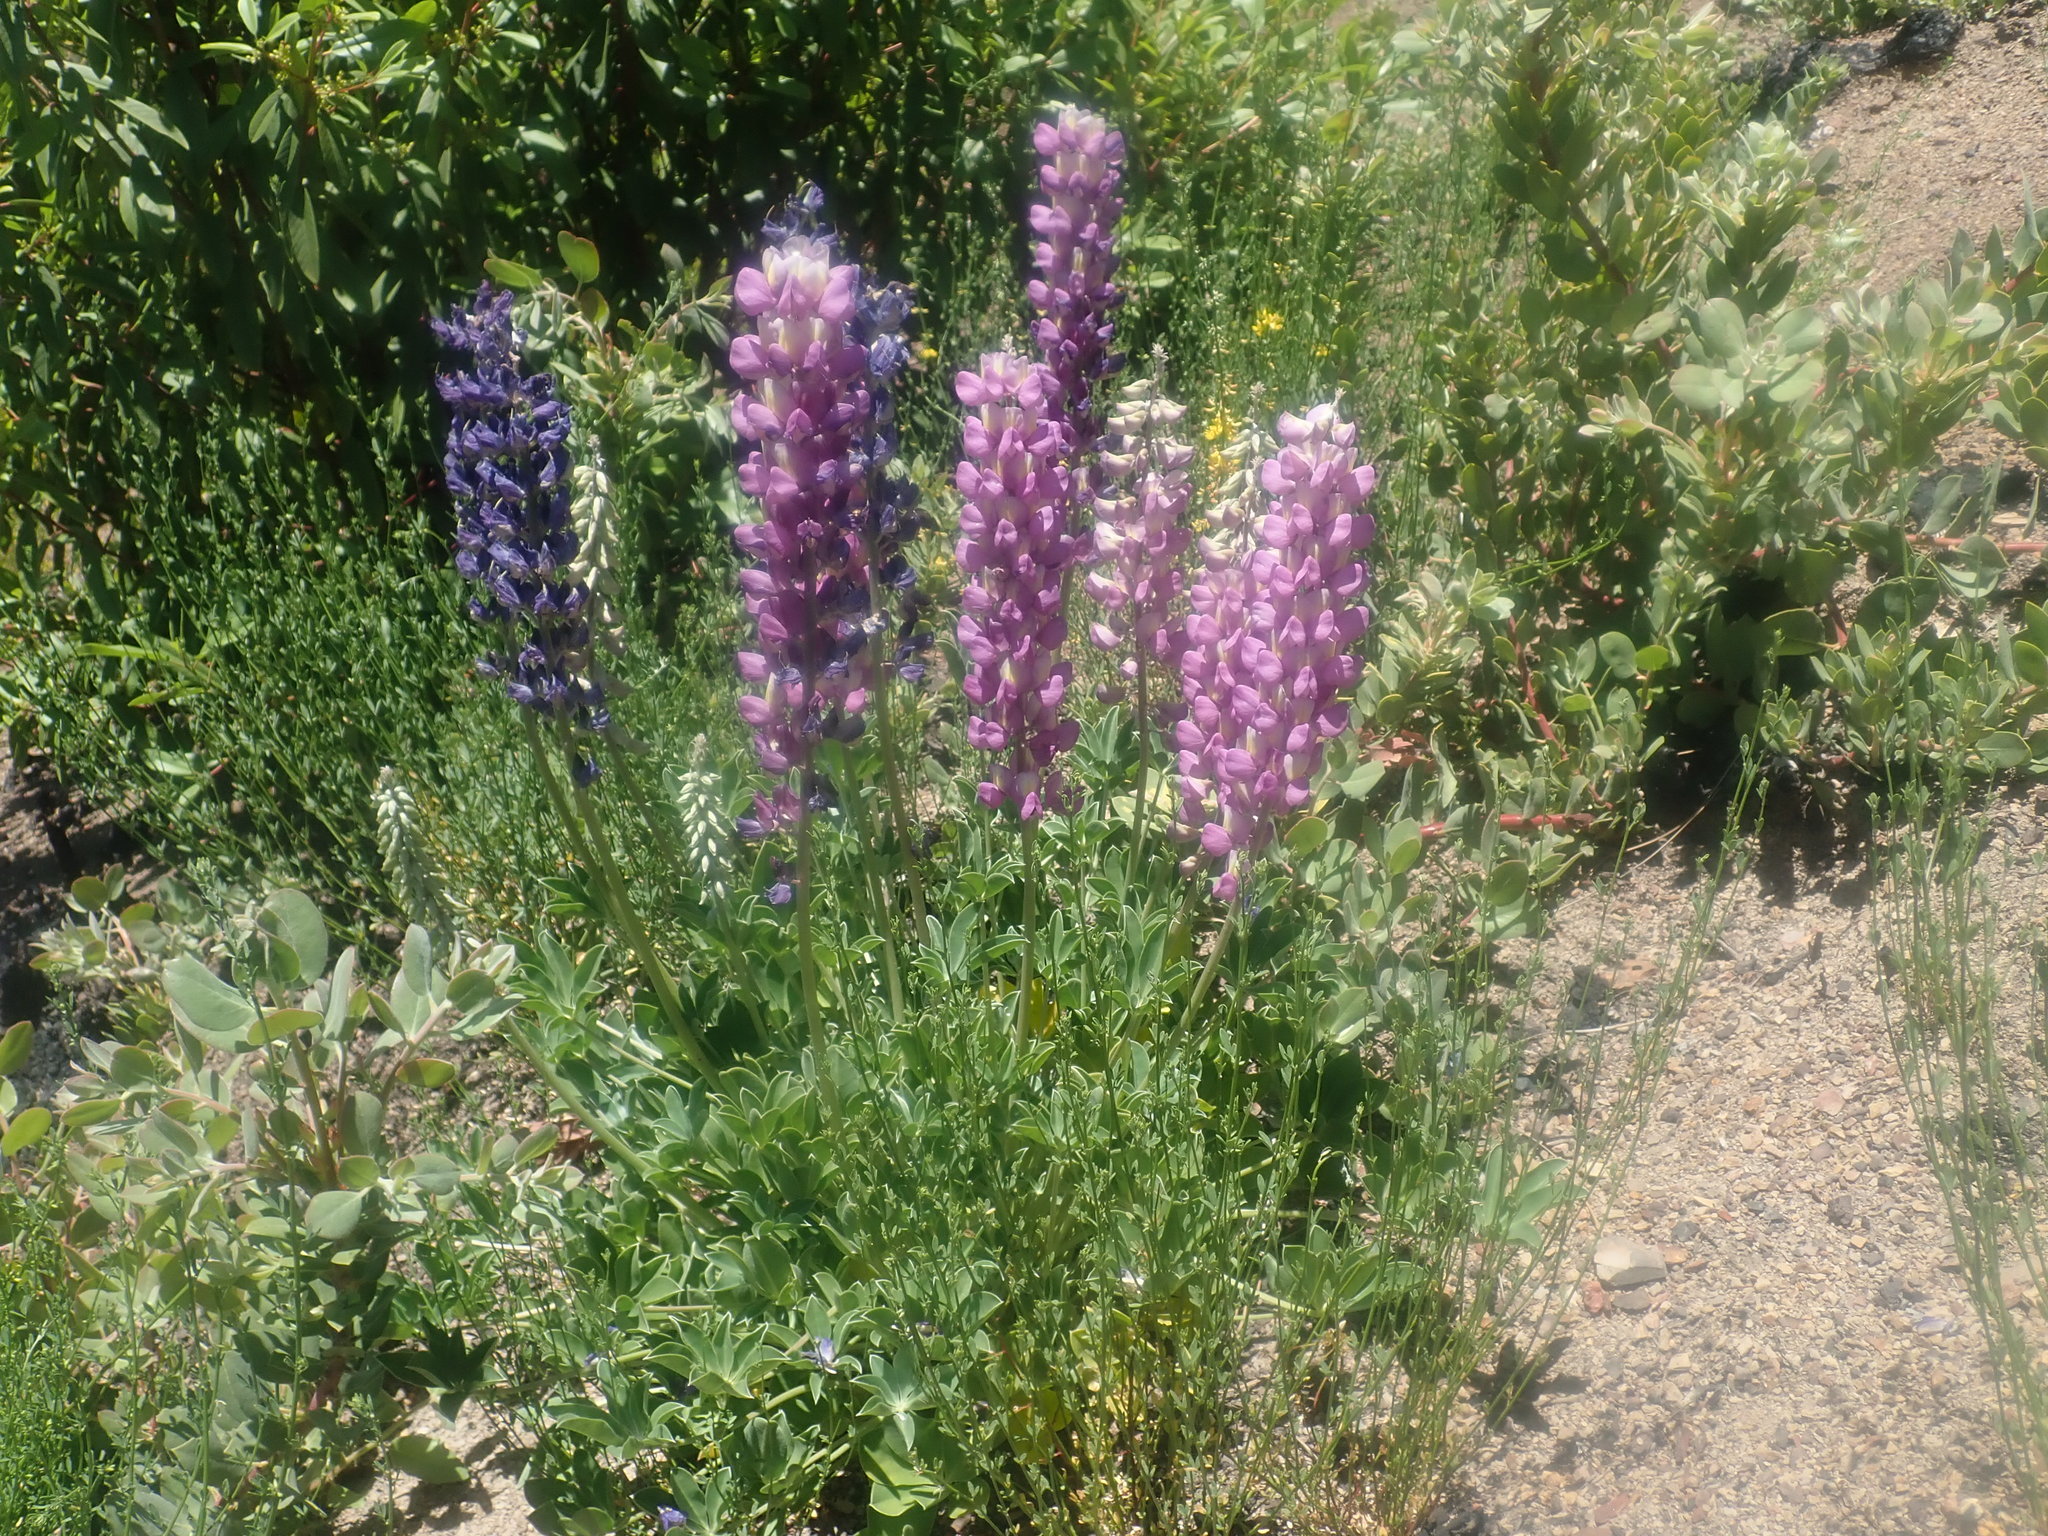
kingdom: Plantae
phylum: Tracheophyta
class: Magnoliopsida
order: Fabales
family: Fabaceae
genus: Lupinus
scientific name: Lupinus cervinus
